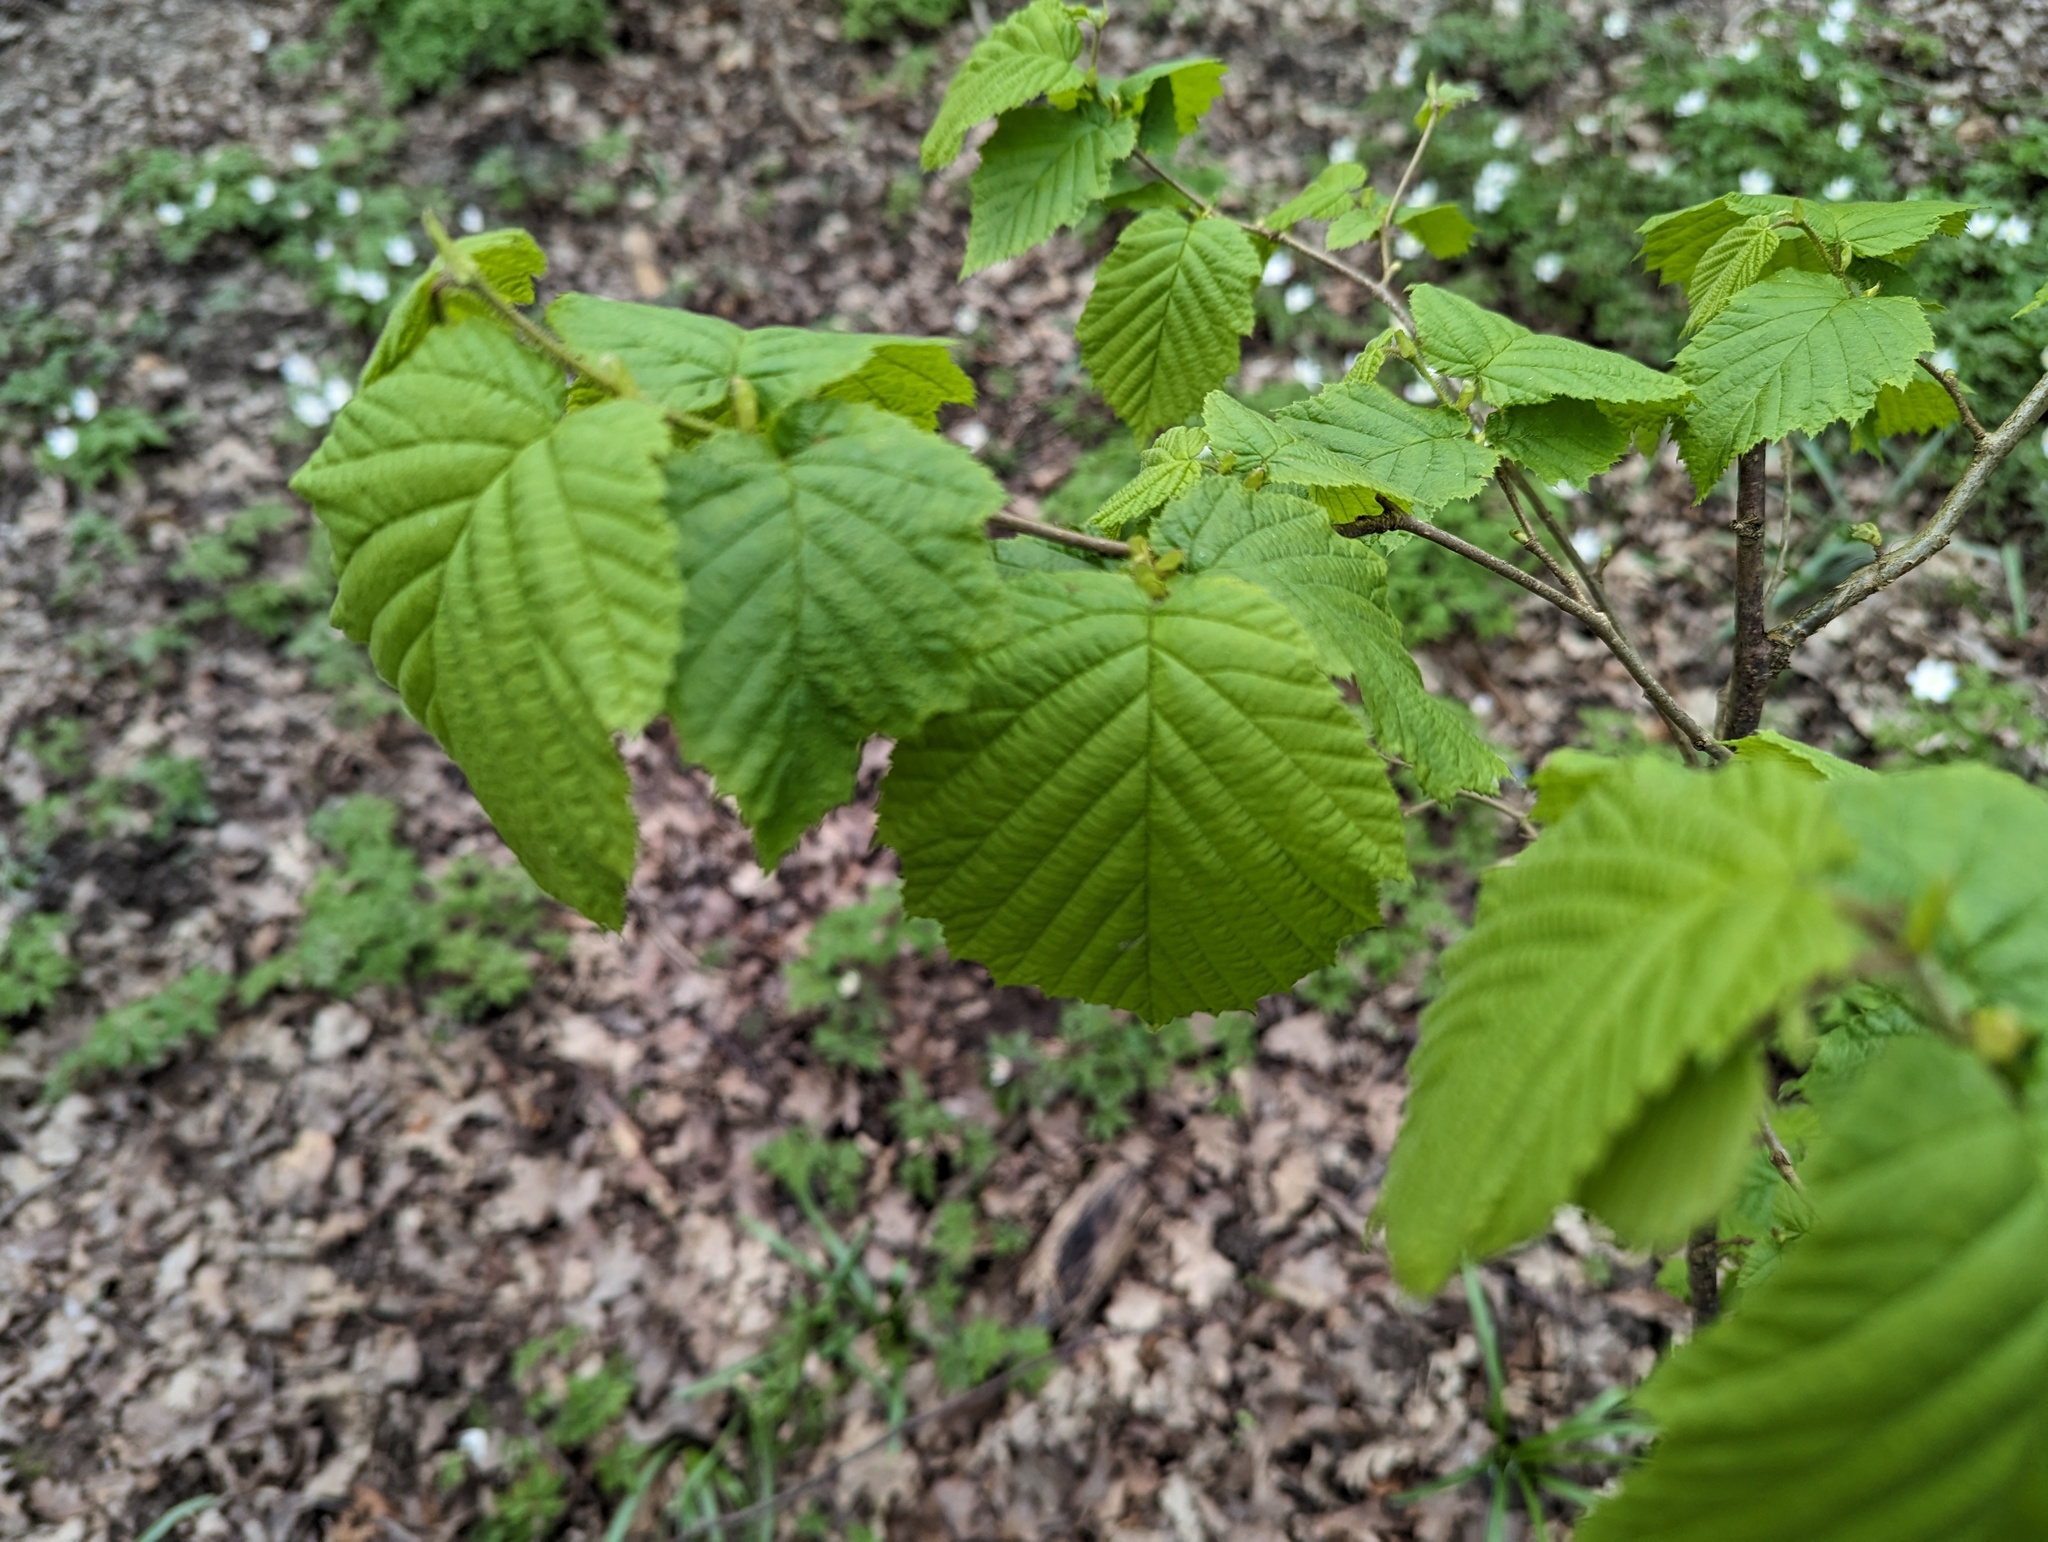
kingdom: Plantae
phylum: Tracheophyta
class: Magnoliopsida
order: Fagales
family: Betulaceae
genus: Corylus
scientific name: Corylus avellana
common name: European hazel
